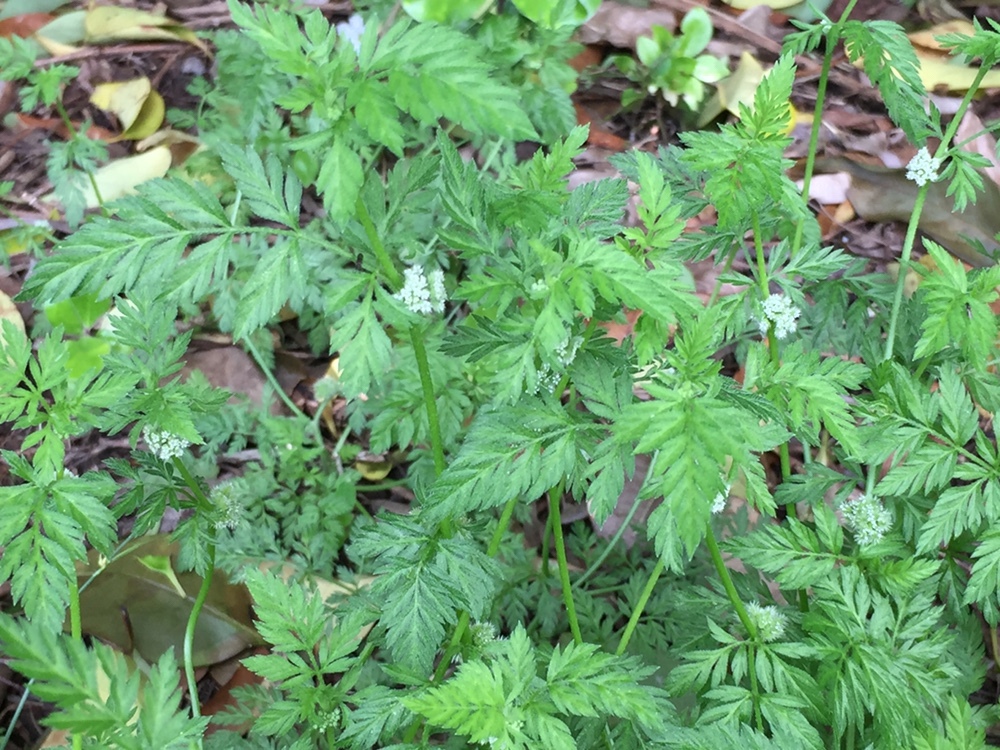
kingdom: Plantae
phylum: Tracheophyta
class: Magnoliopsida
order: Apiales
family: Apiaceae
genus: Torilis
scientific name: Torilis nodosa
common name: Knotted hedge-parsley
